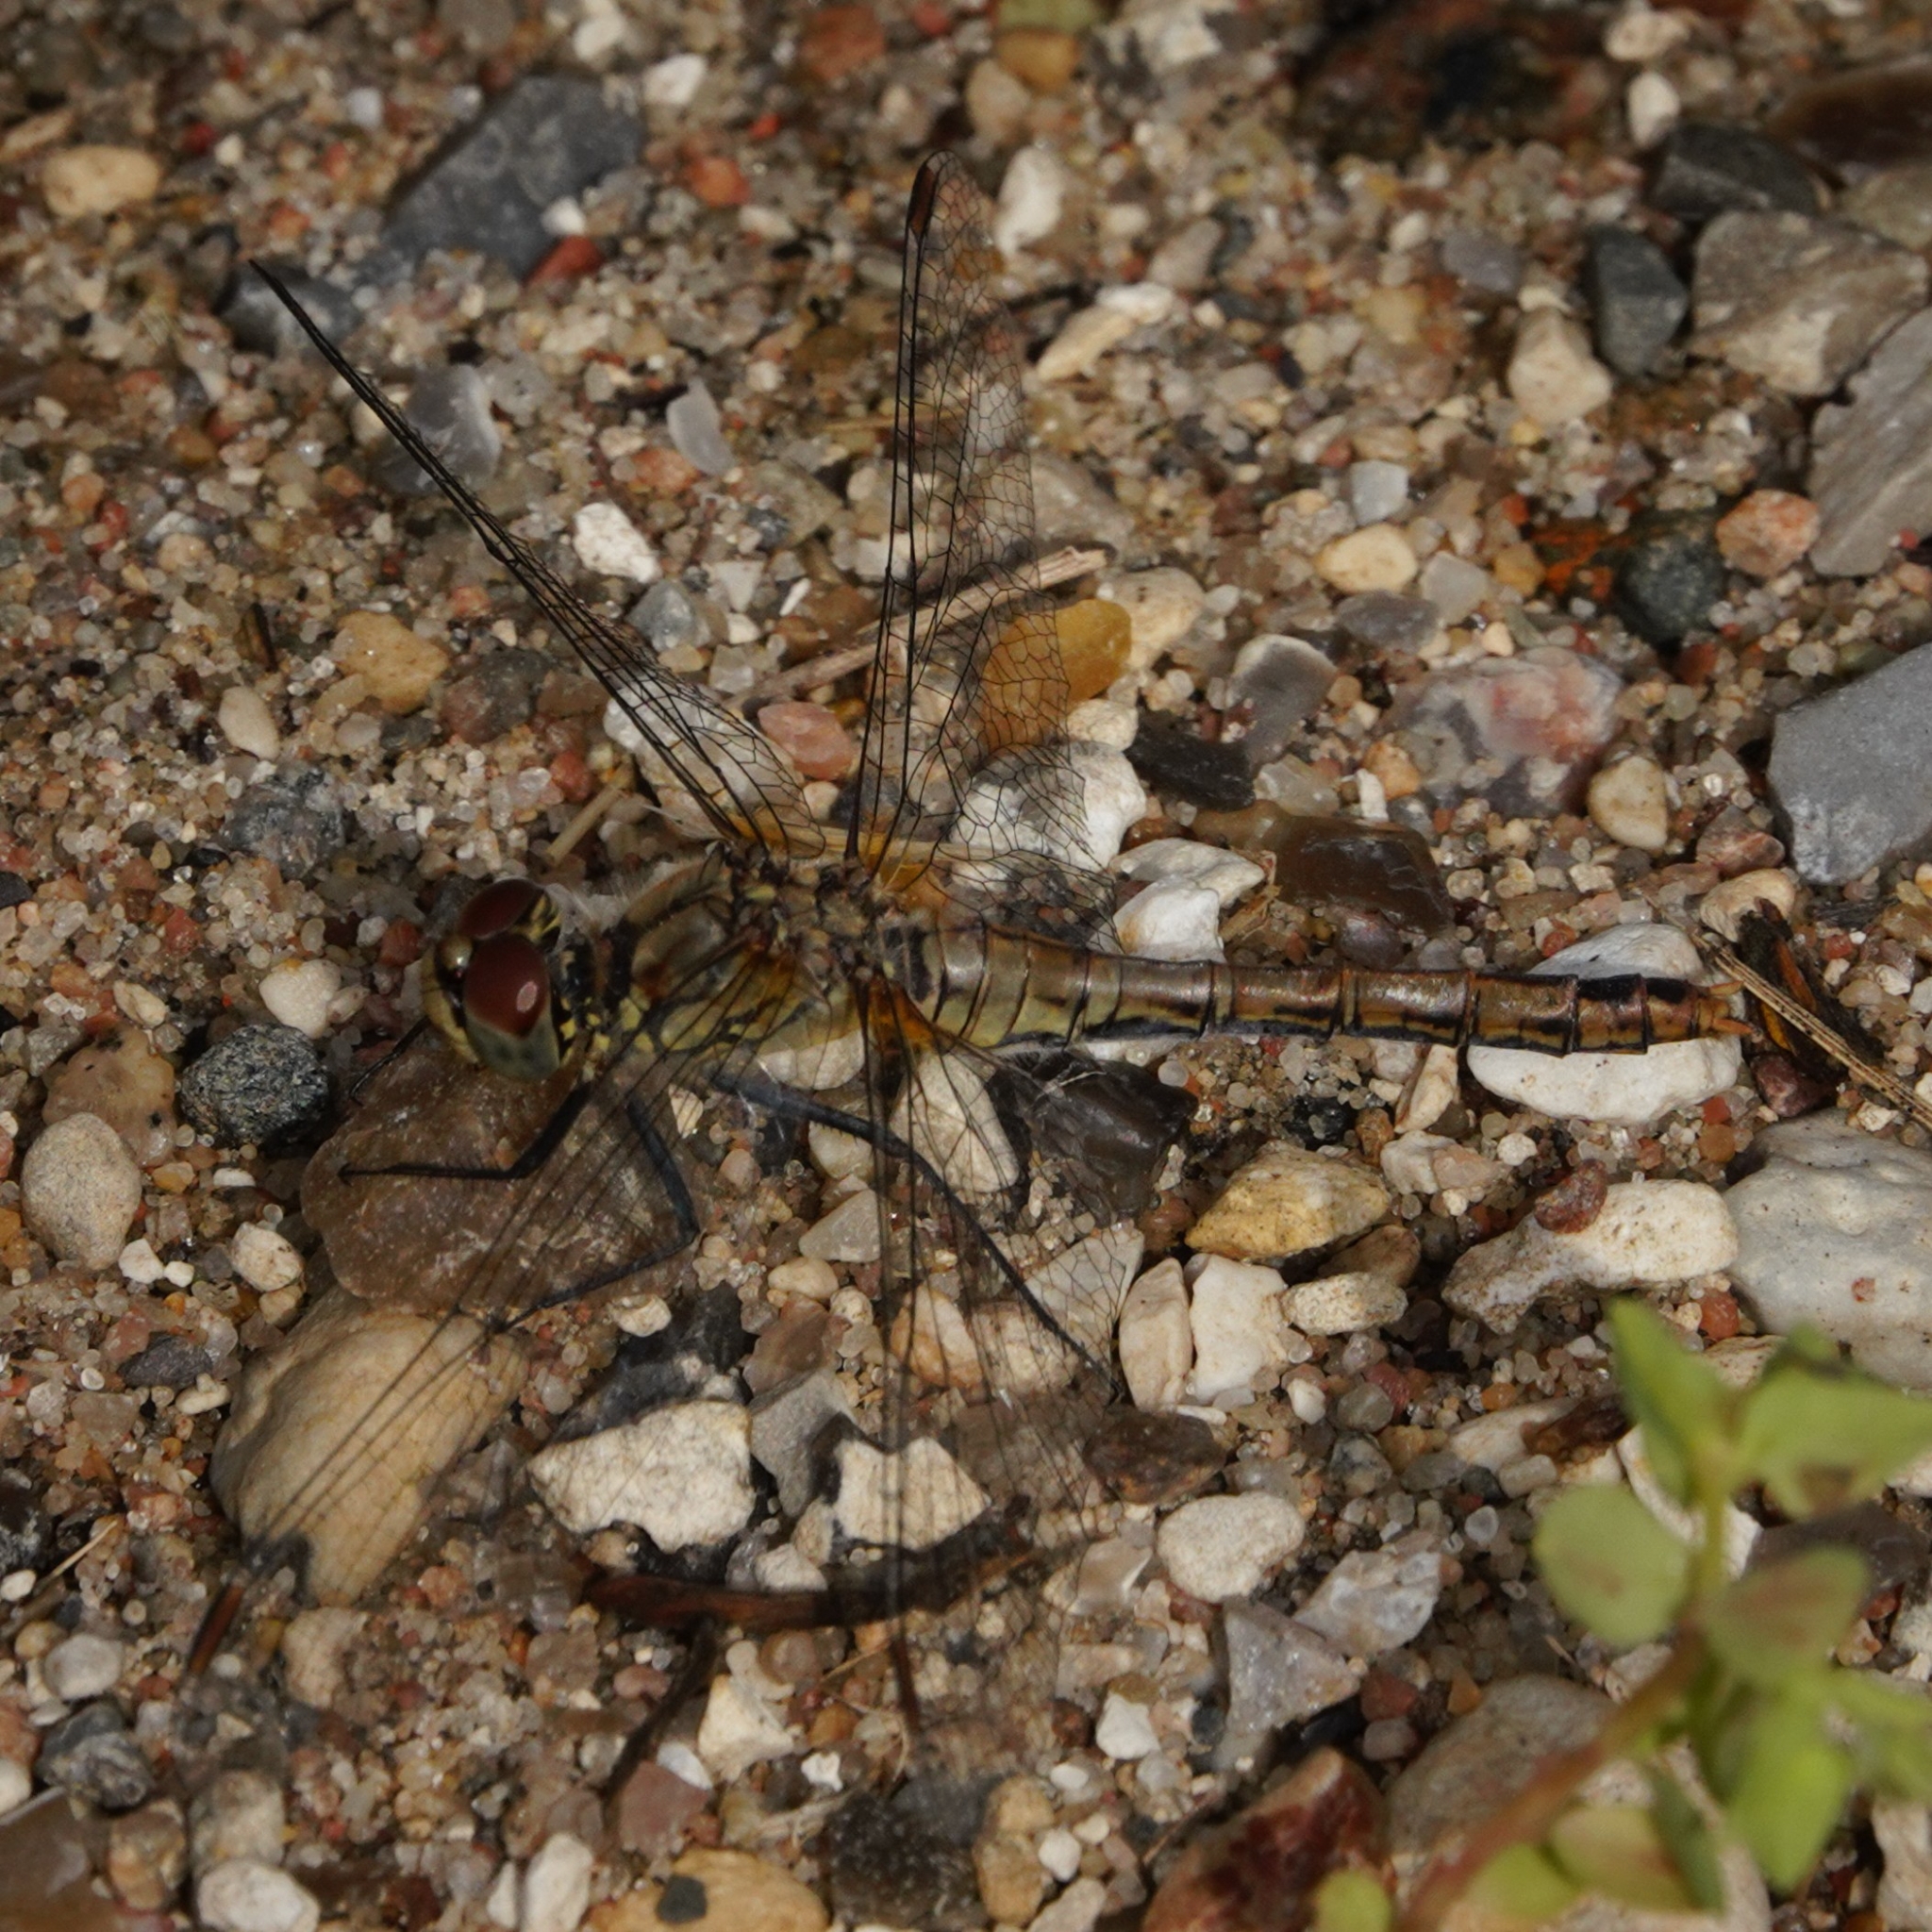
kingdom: Animalia
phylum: Arthropoda
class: Insecta
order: Odonata
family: Libellulidae
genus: Sympetrum
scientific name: Sympetrum sanguineum
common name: Ruddy darter
